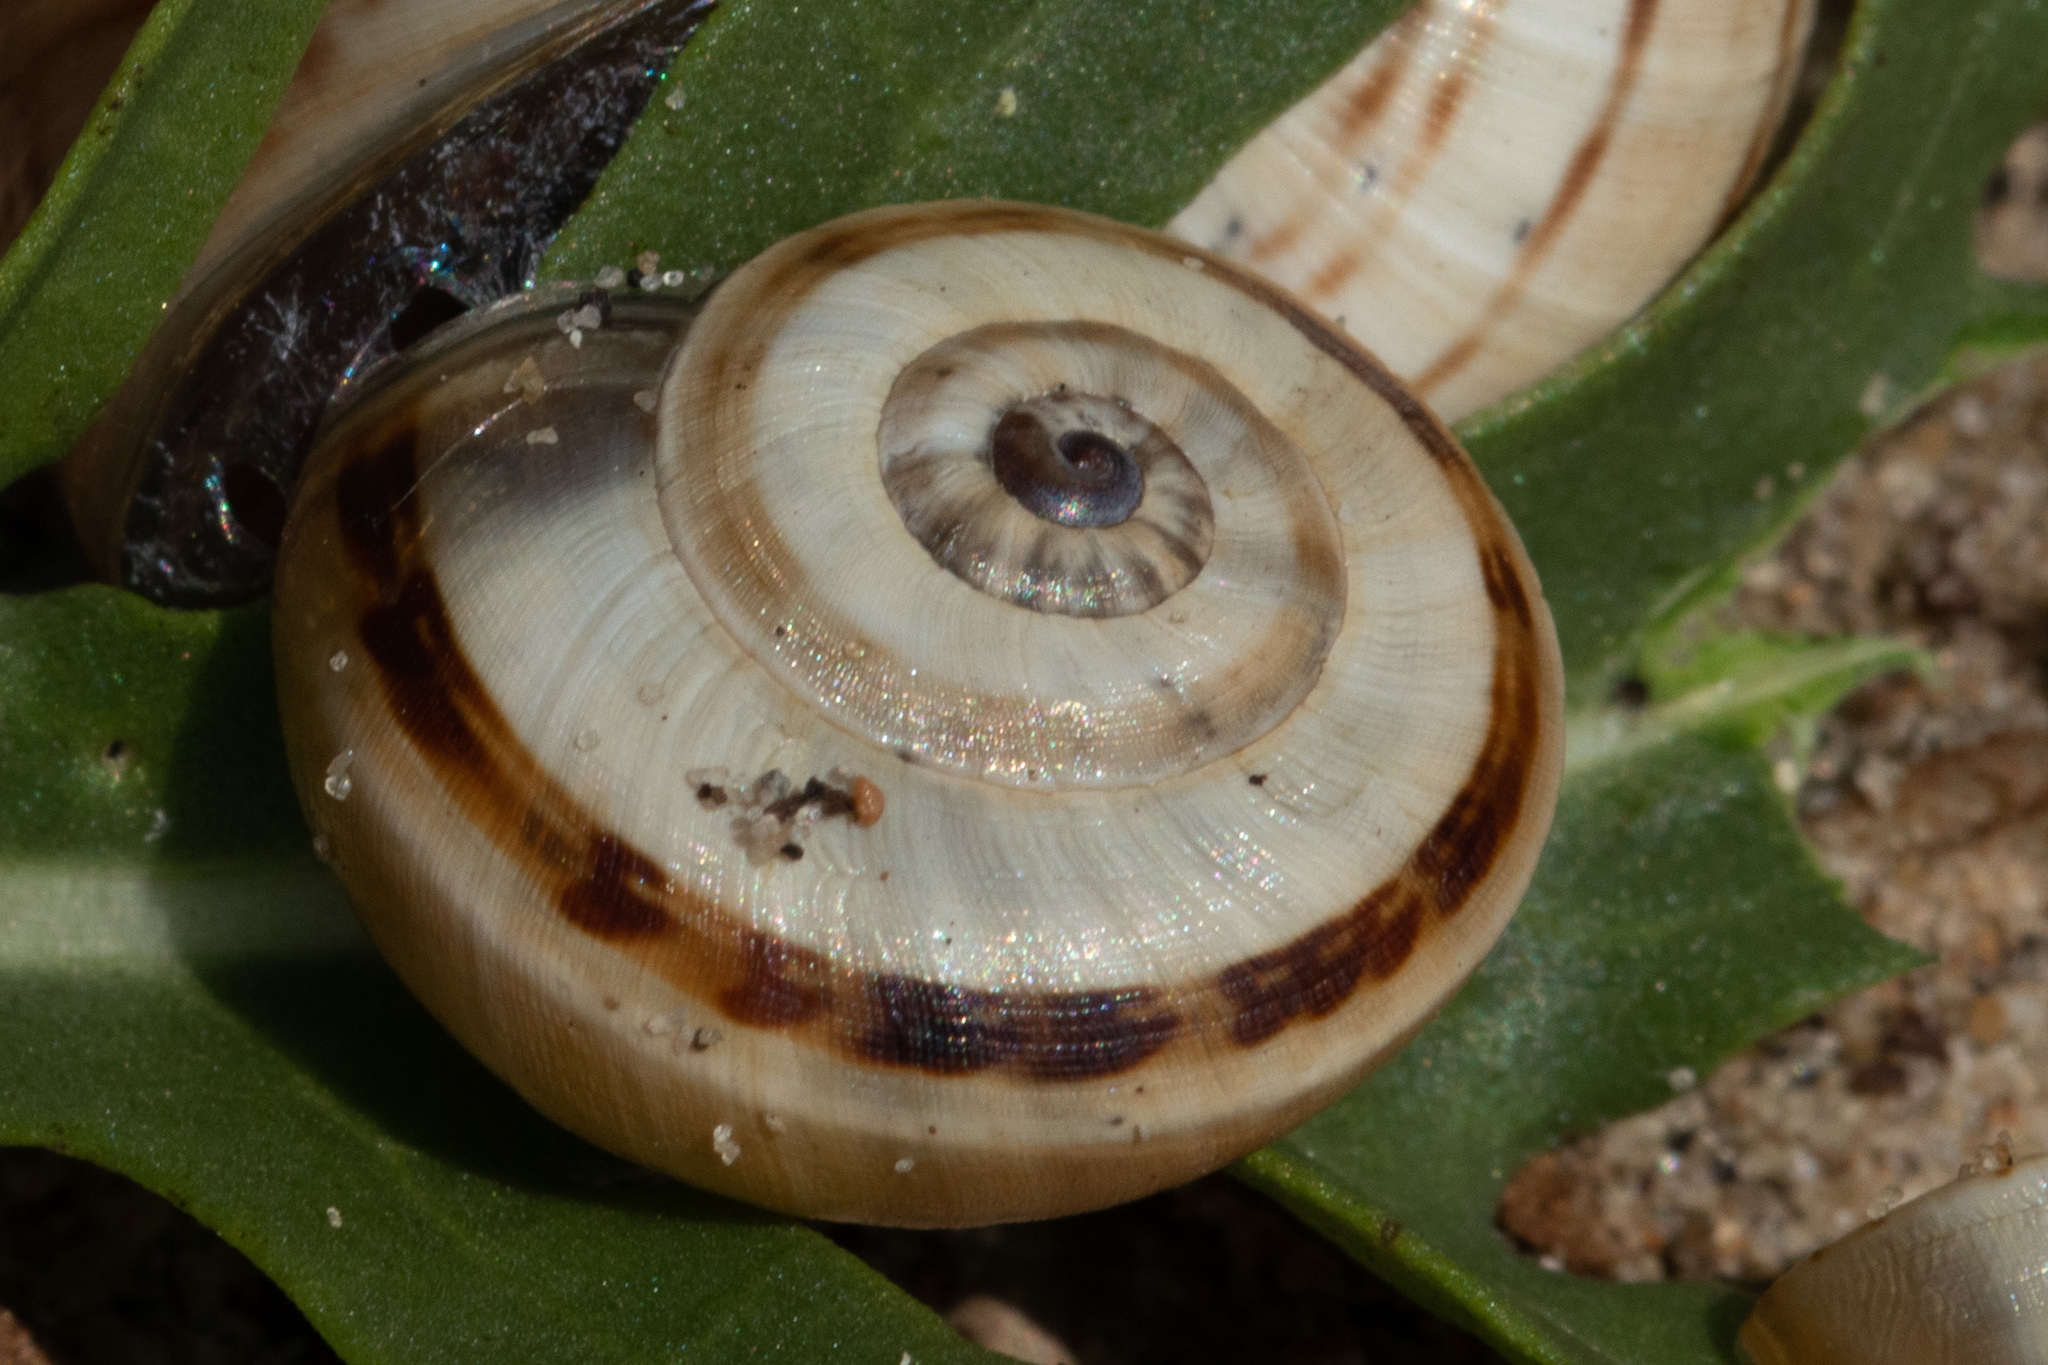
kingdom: Animalia
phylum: Mollusca
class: Gastropoda
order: Stylommatophora
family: Helicidae
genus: Theba
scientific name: Theba pisana
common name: White snail
